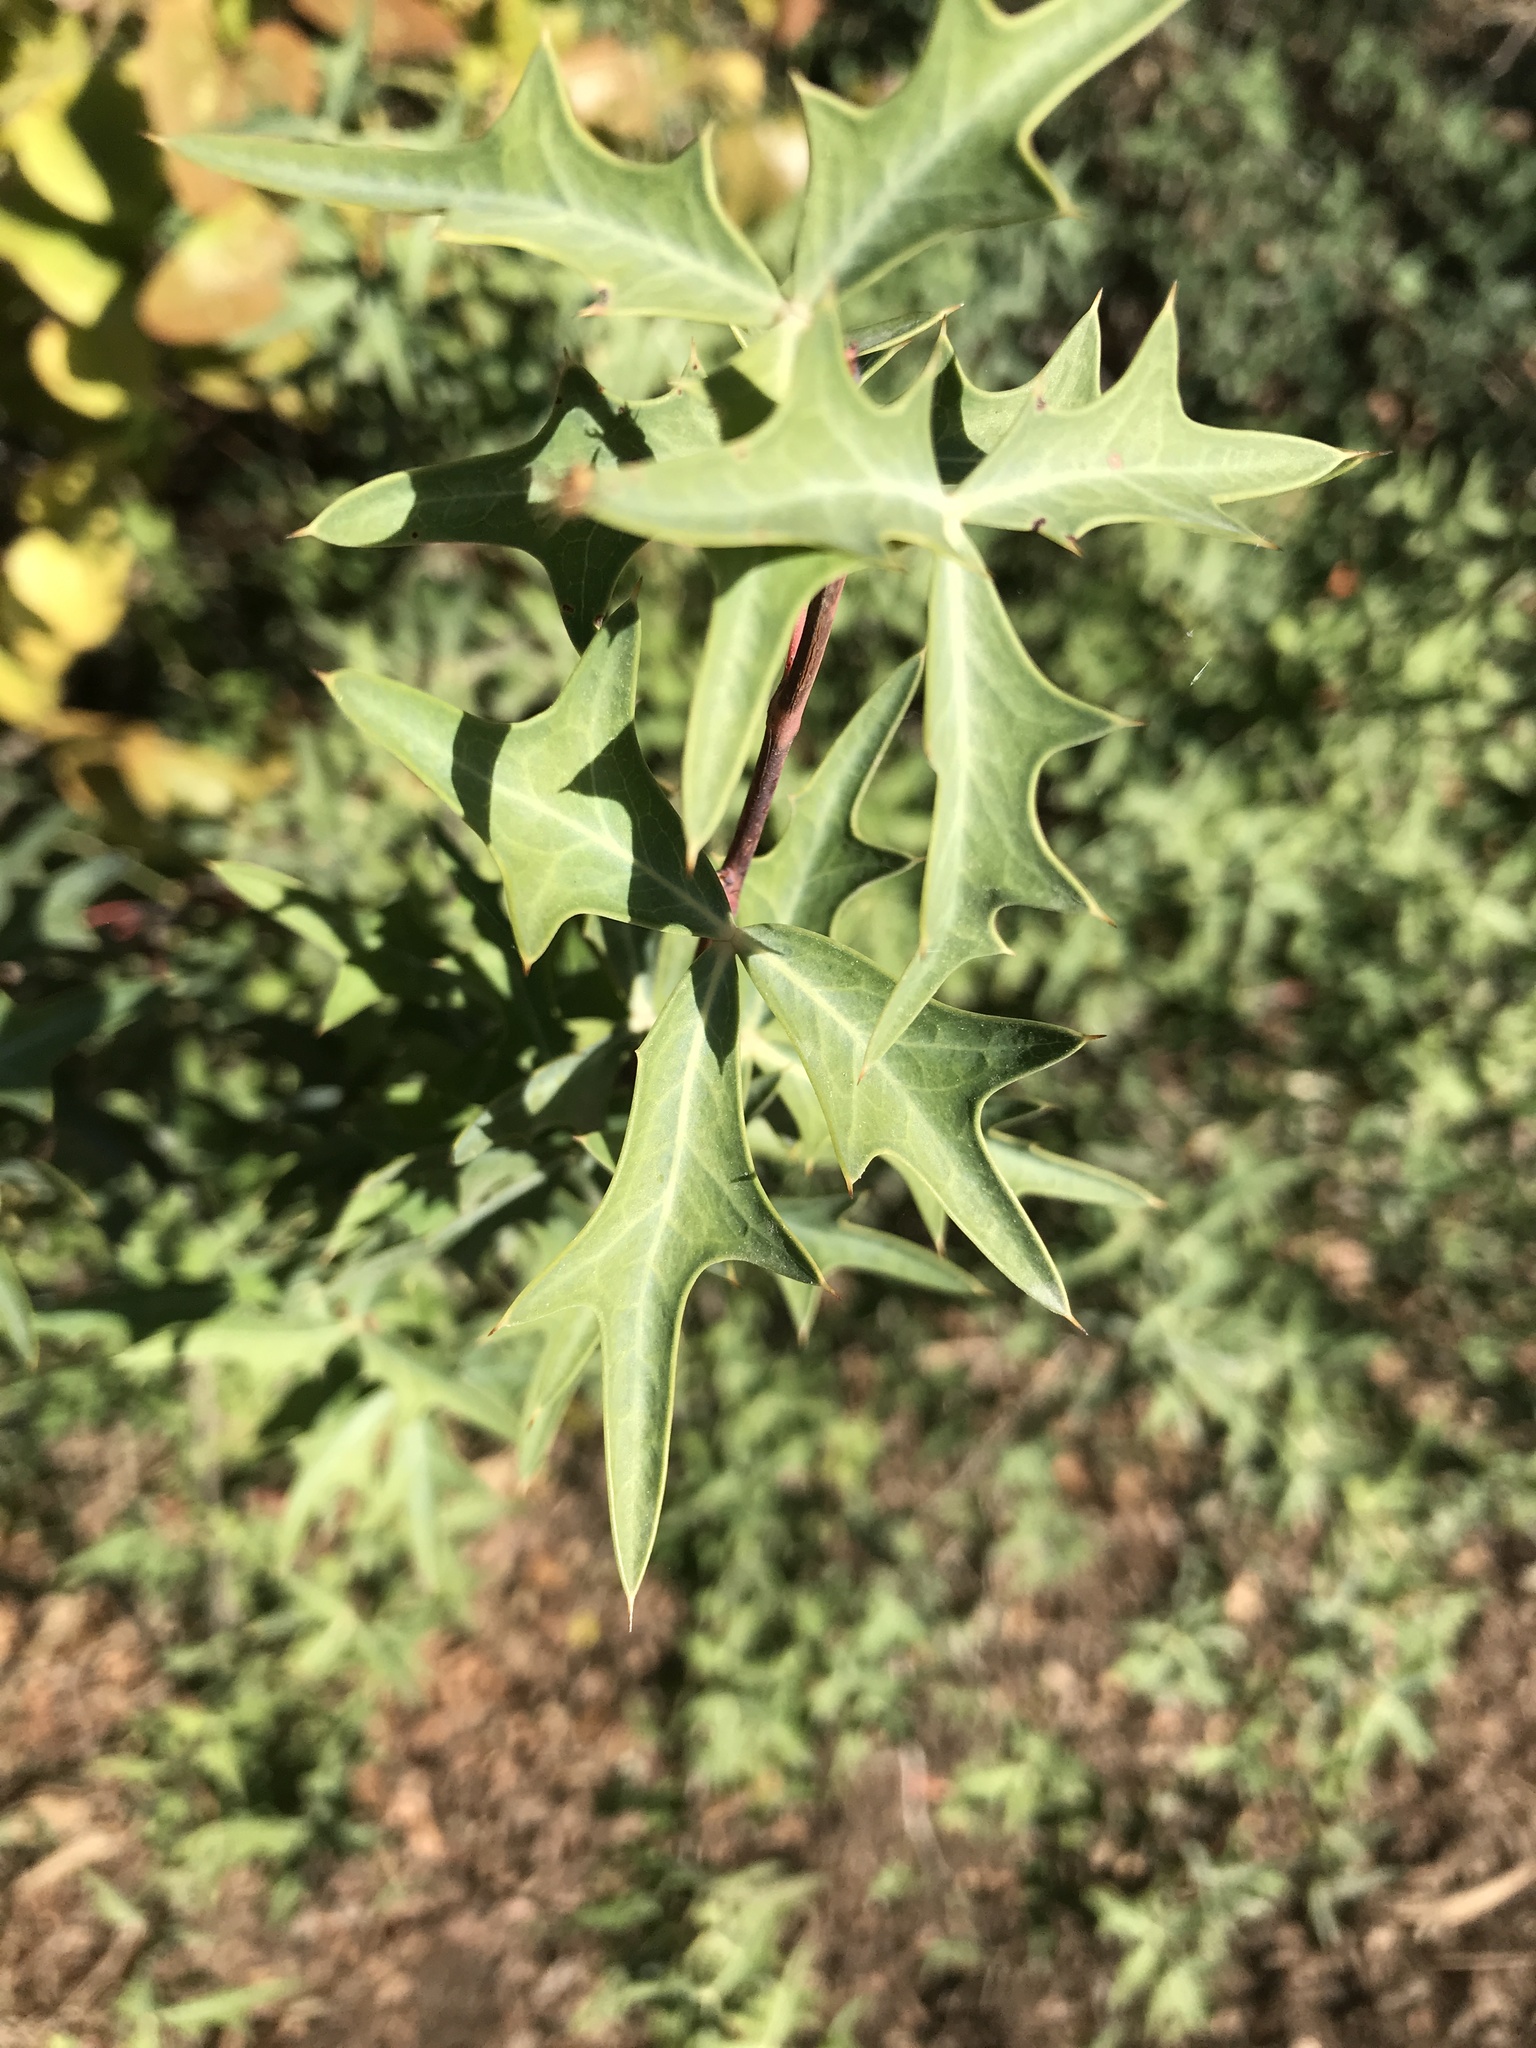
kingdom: Plantae
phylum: Tracheophyta
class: Magnoliopsida
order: Ranunculales
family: Berberidaceae
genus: Alloberberis
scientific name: Alloberberis trifoliolata
